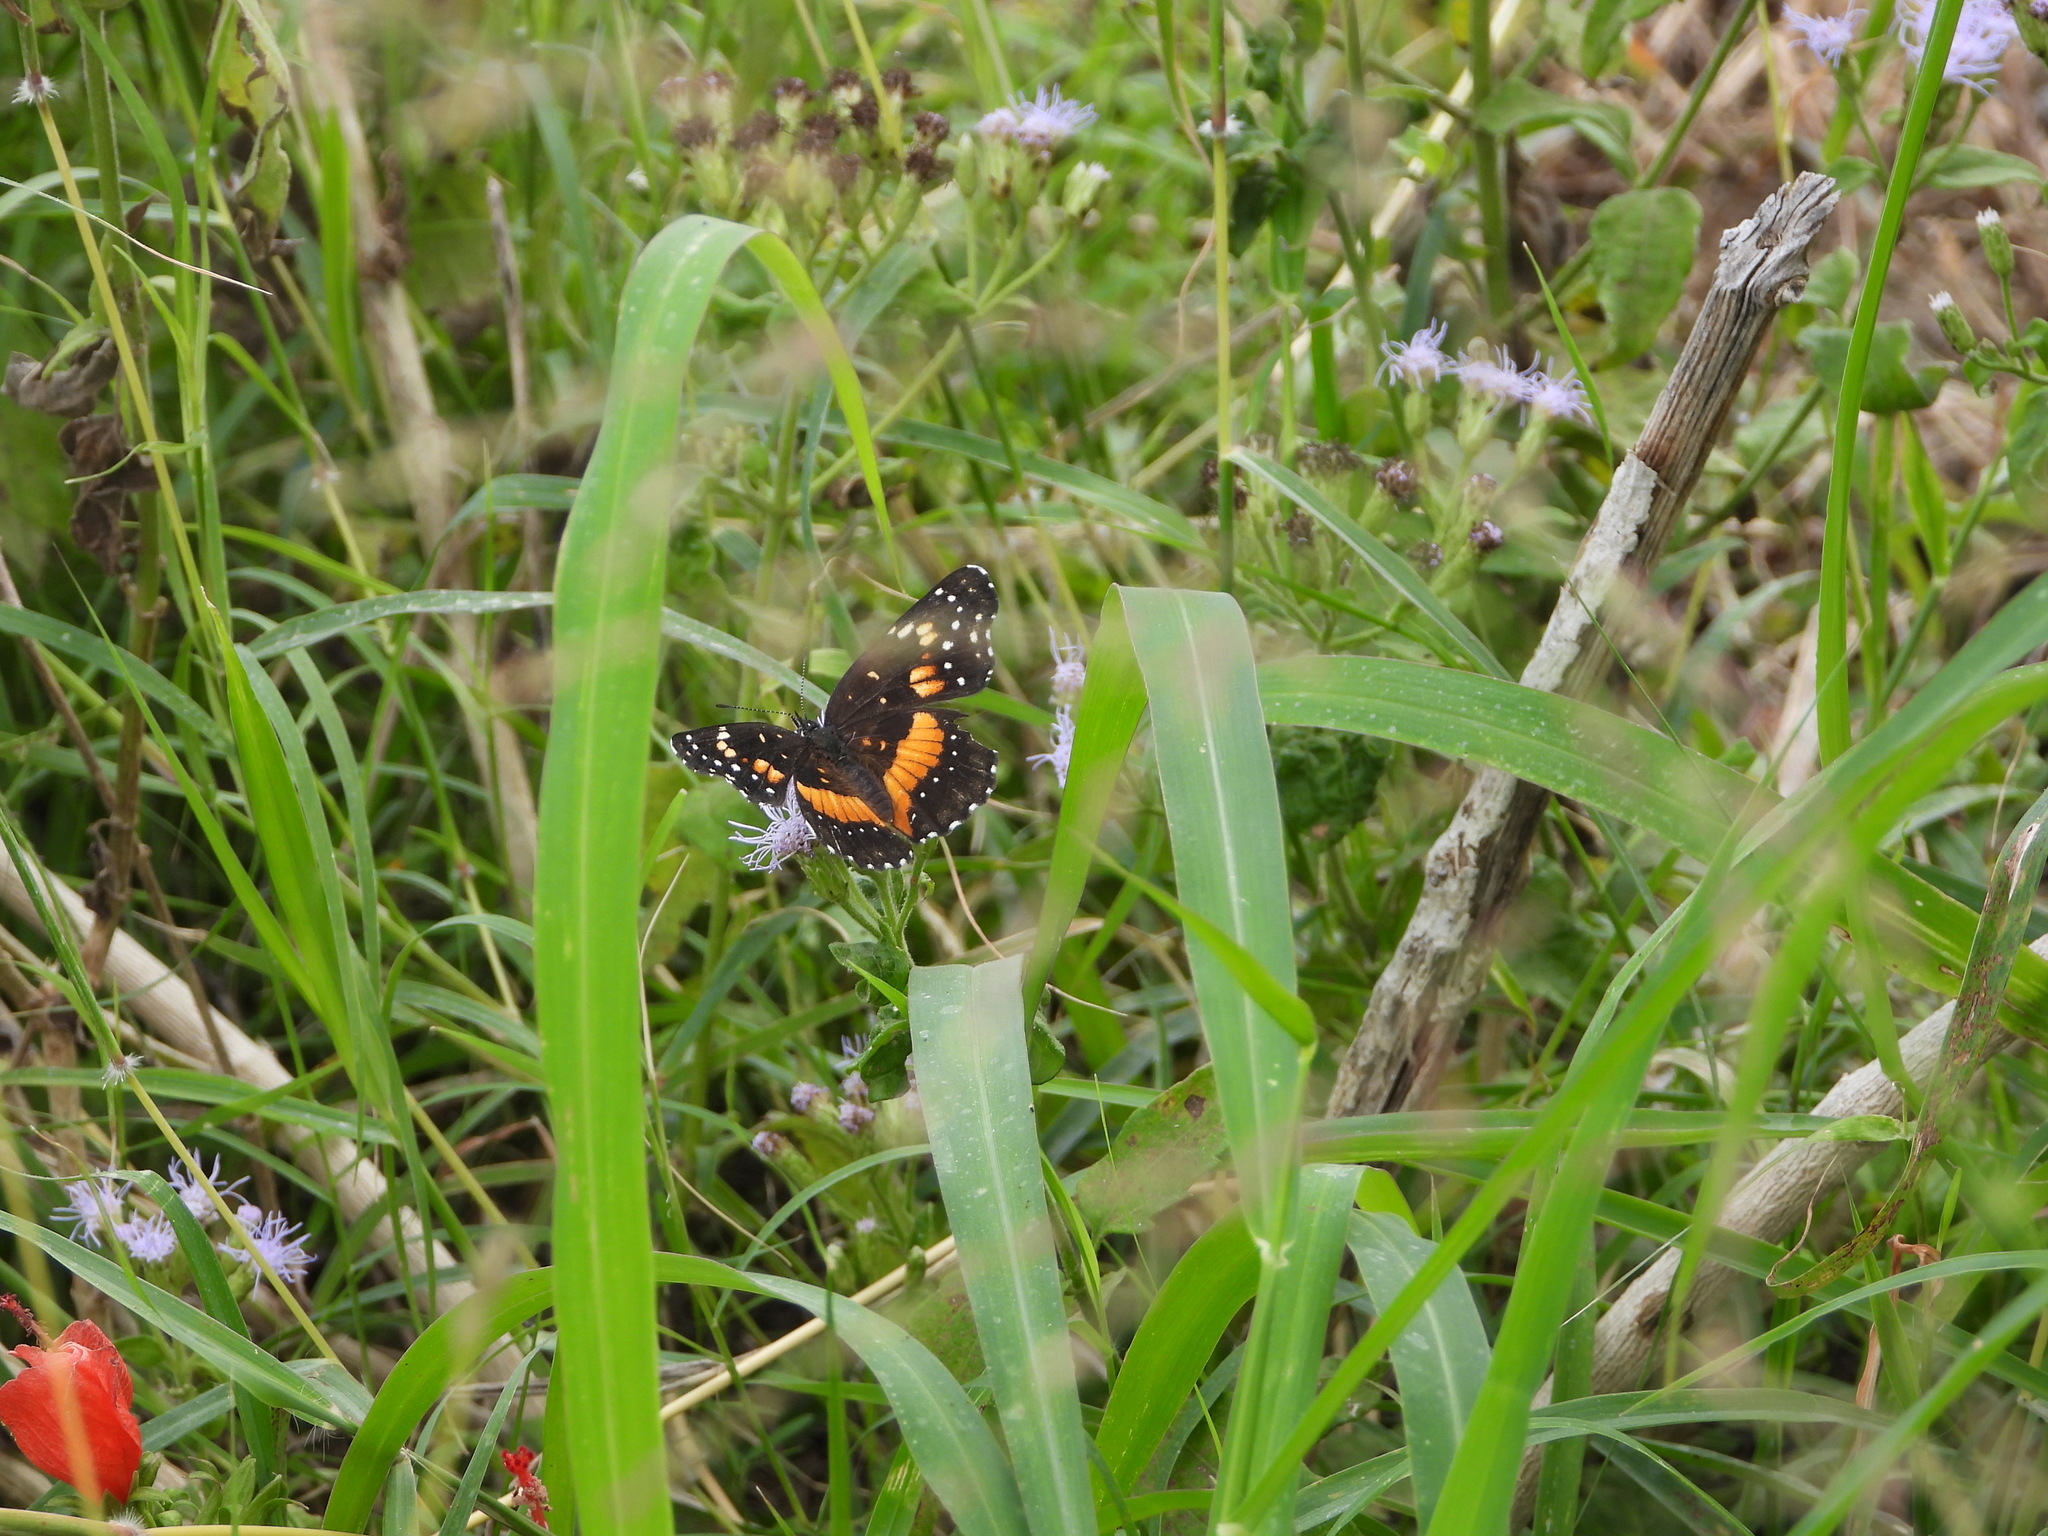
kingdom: Animalia
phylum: Arthropoda
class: Insecta
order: Lepidoptera
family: Nymphalidae
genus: Chlosyne
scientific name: Chlosyne lacinia
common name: Bordered patch
